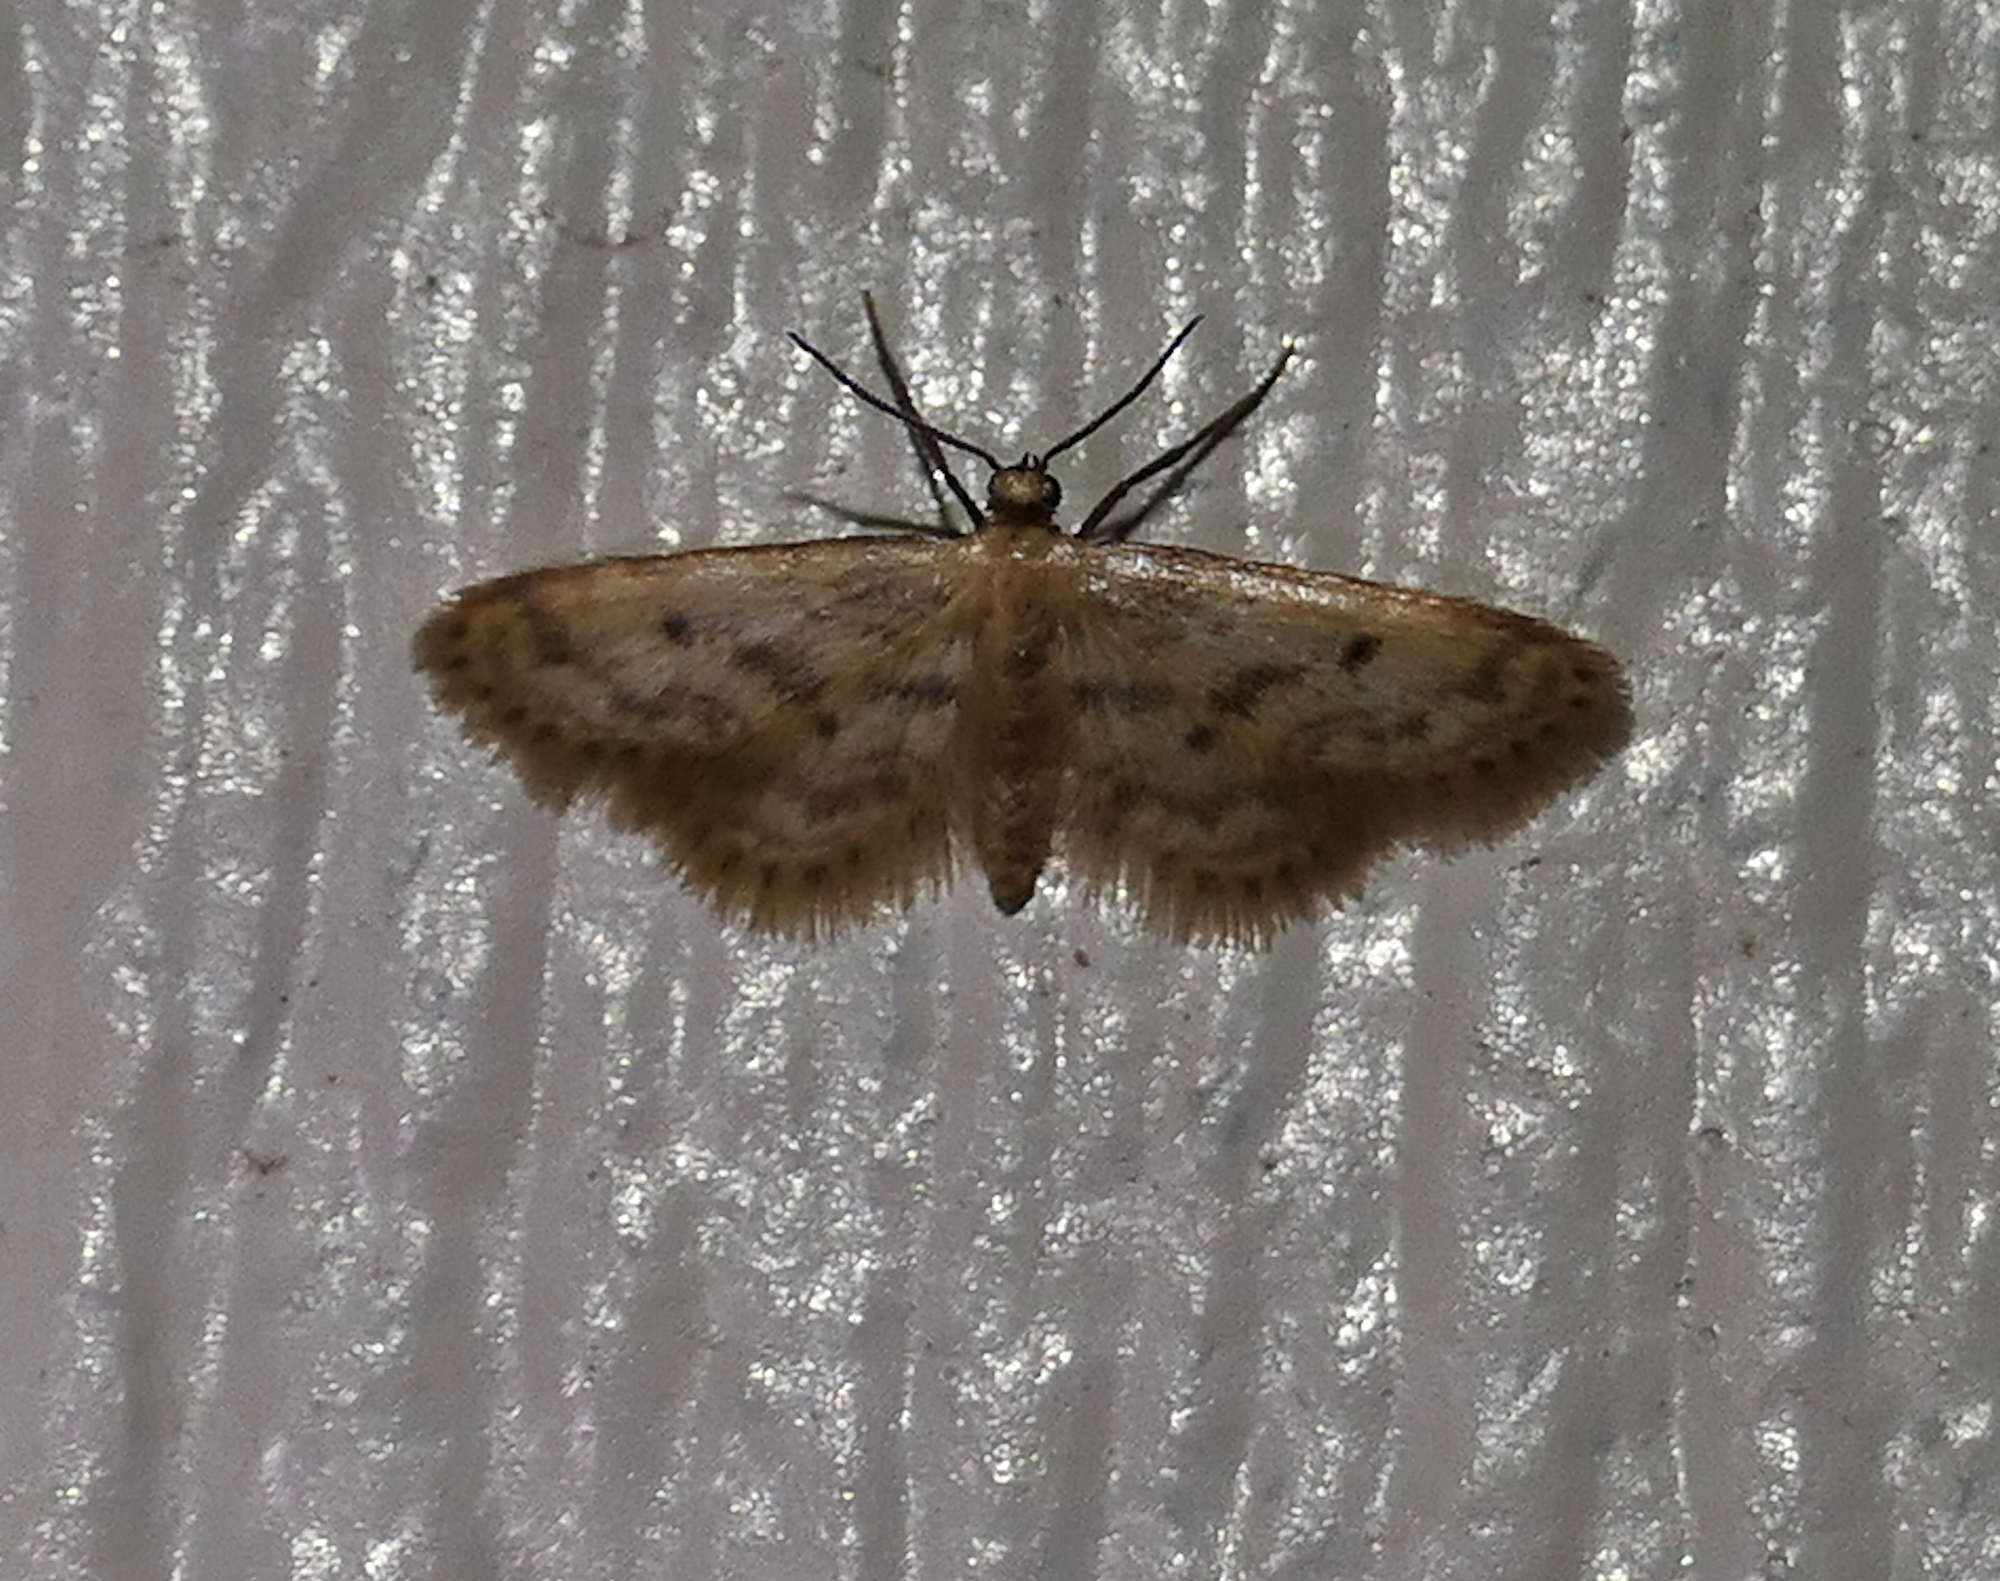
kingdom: Animalia
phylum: Arthropoda
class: Insecta
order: Lepidoptera
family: Geometridae
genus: Idaea
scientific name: Idaea bonifata
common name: Fortunate wave
